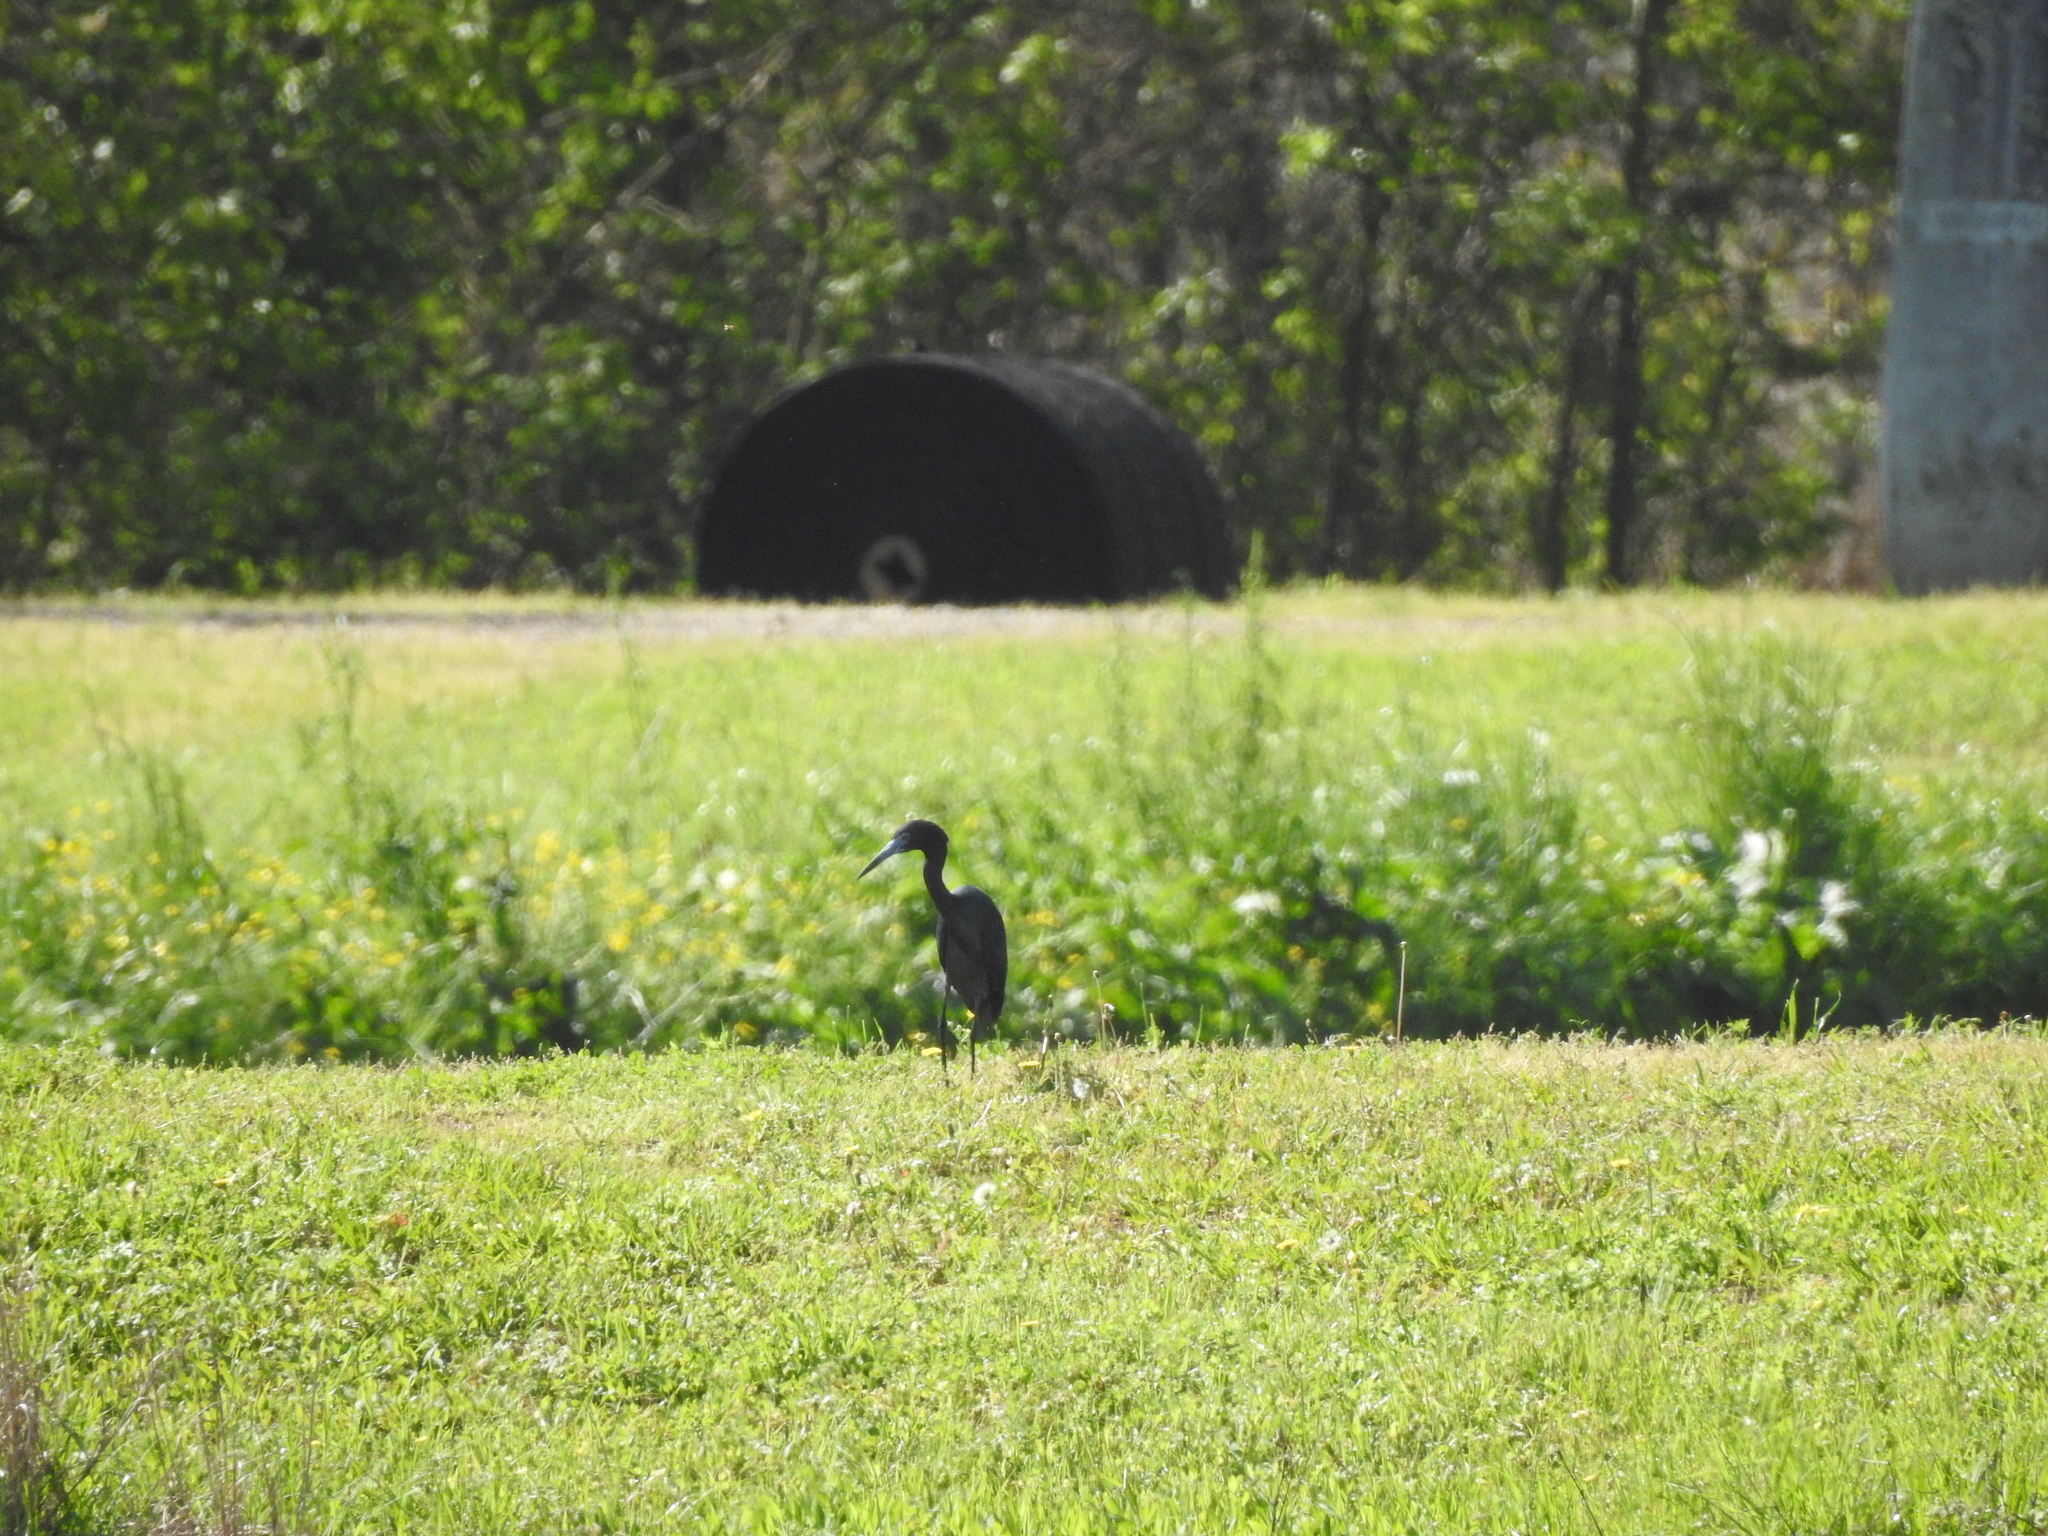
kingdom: Animalia
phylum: Chordata
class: Aves
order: Pelecaniformes
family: Ardeidae
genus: Egretta
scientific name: Egretta caerulea
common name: Little blue heron
